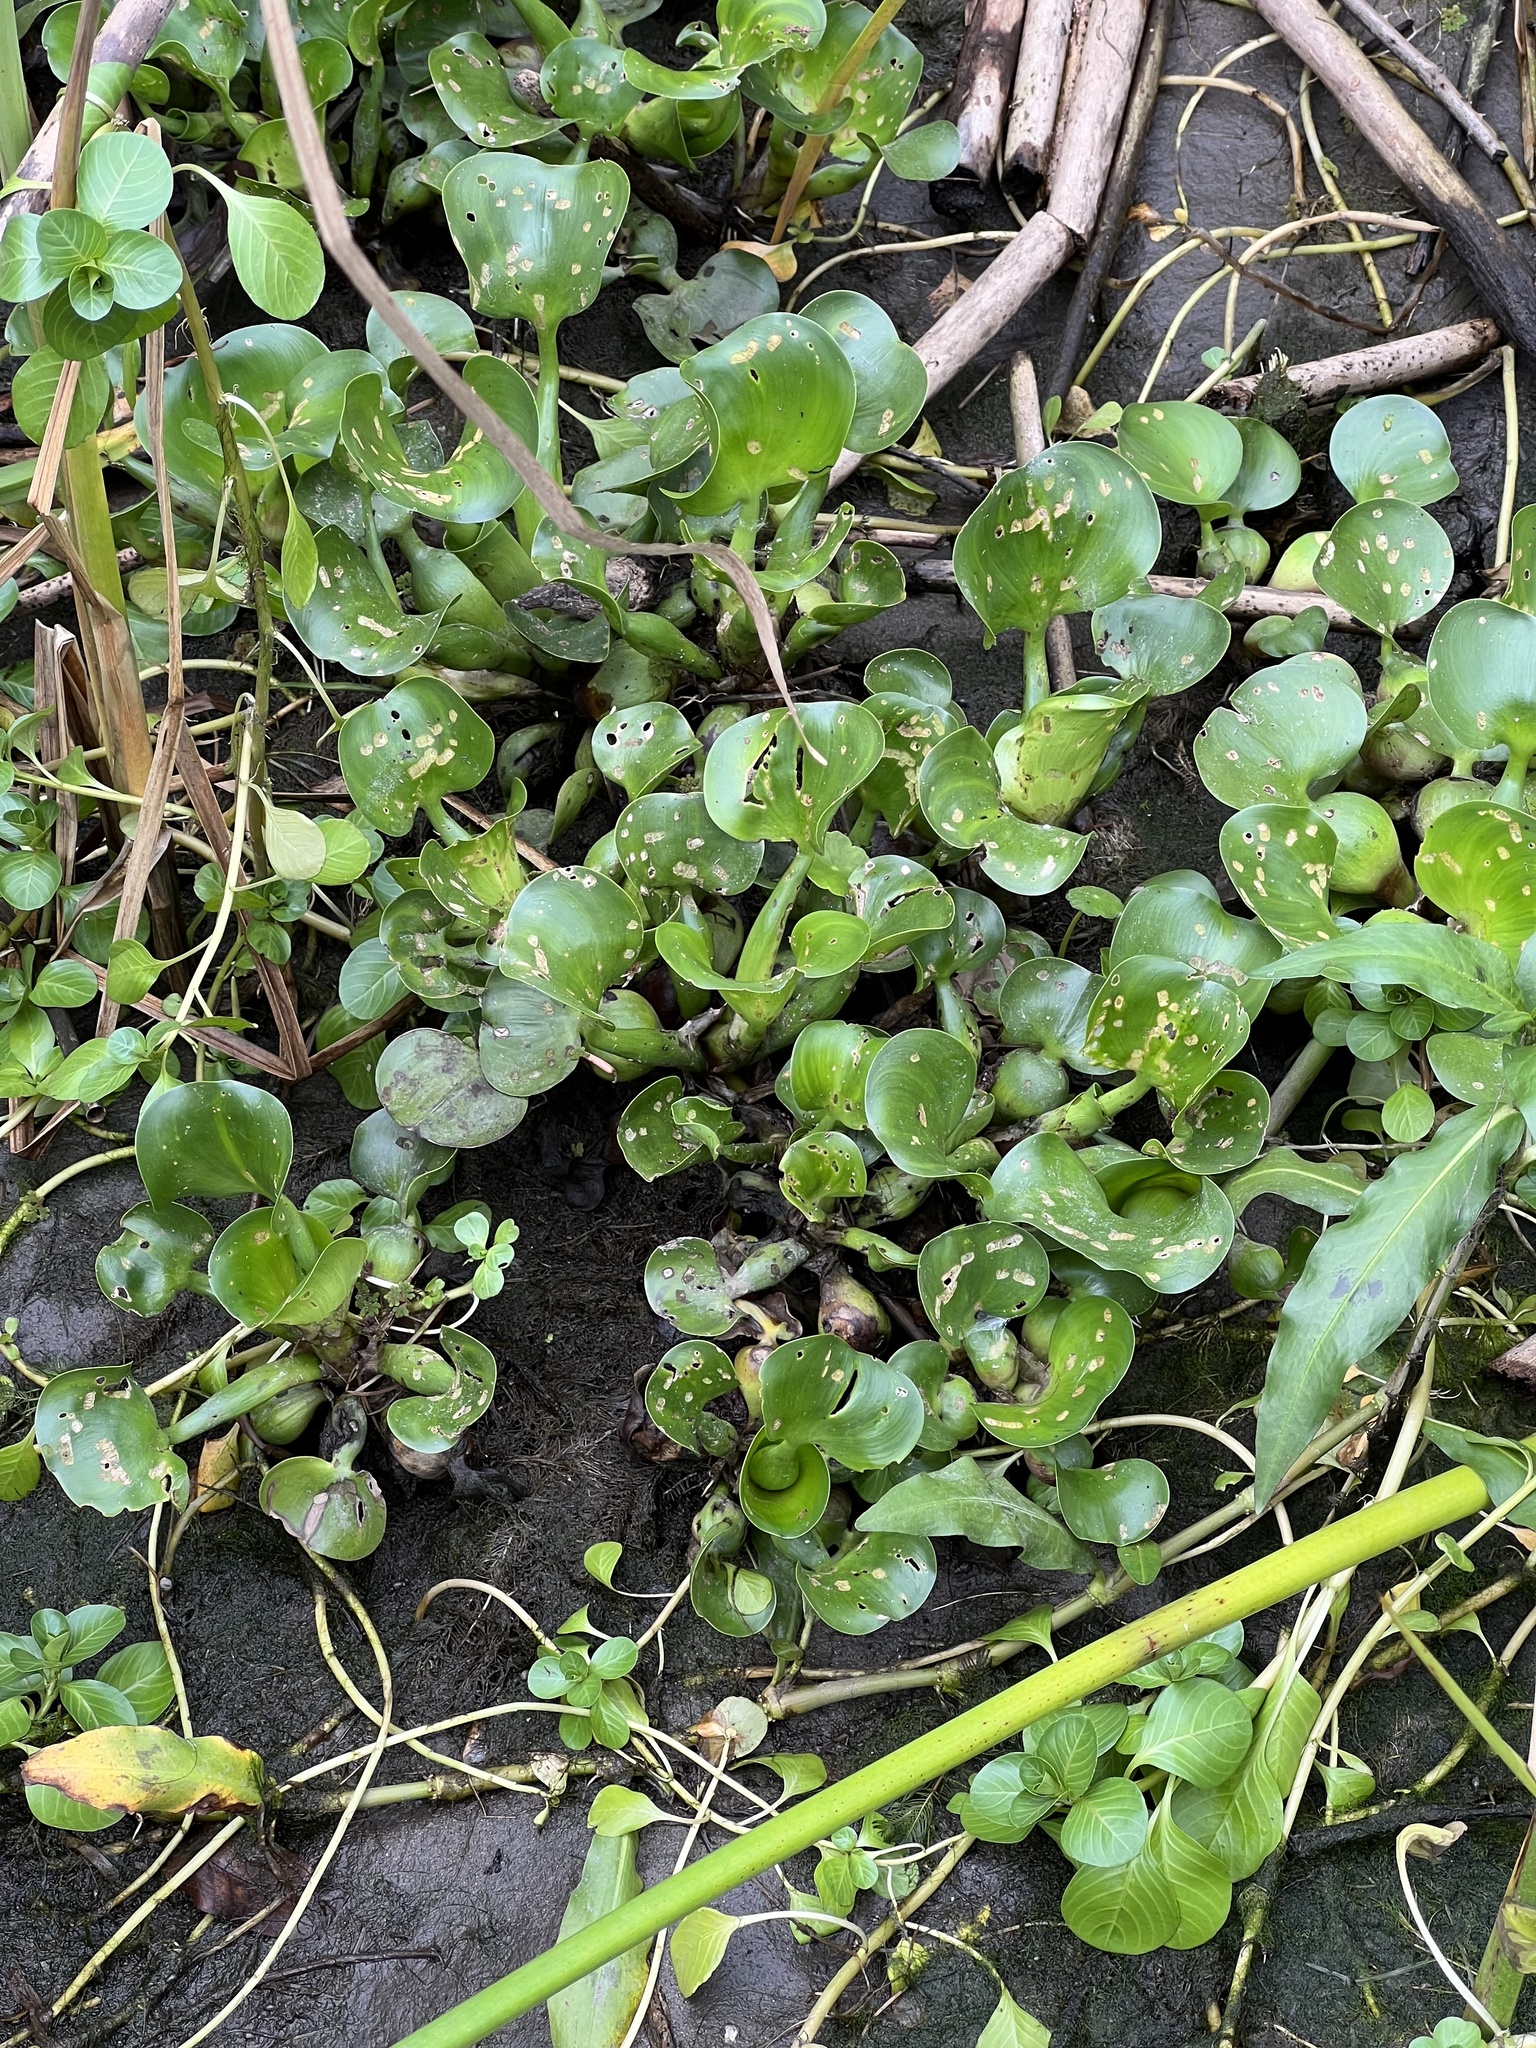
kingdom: Plantae
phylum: Tracheophyta
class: Liliopsida
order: Commelinales
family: Pontederiaceae
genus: Pontederia
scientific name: Pontederia crassipes
